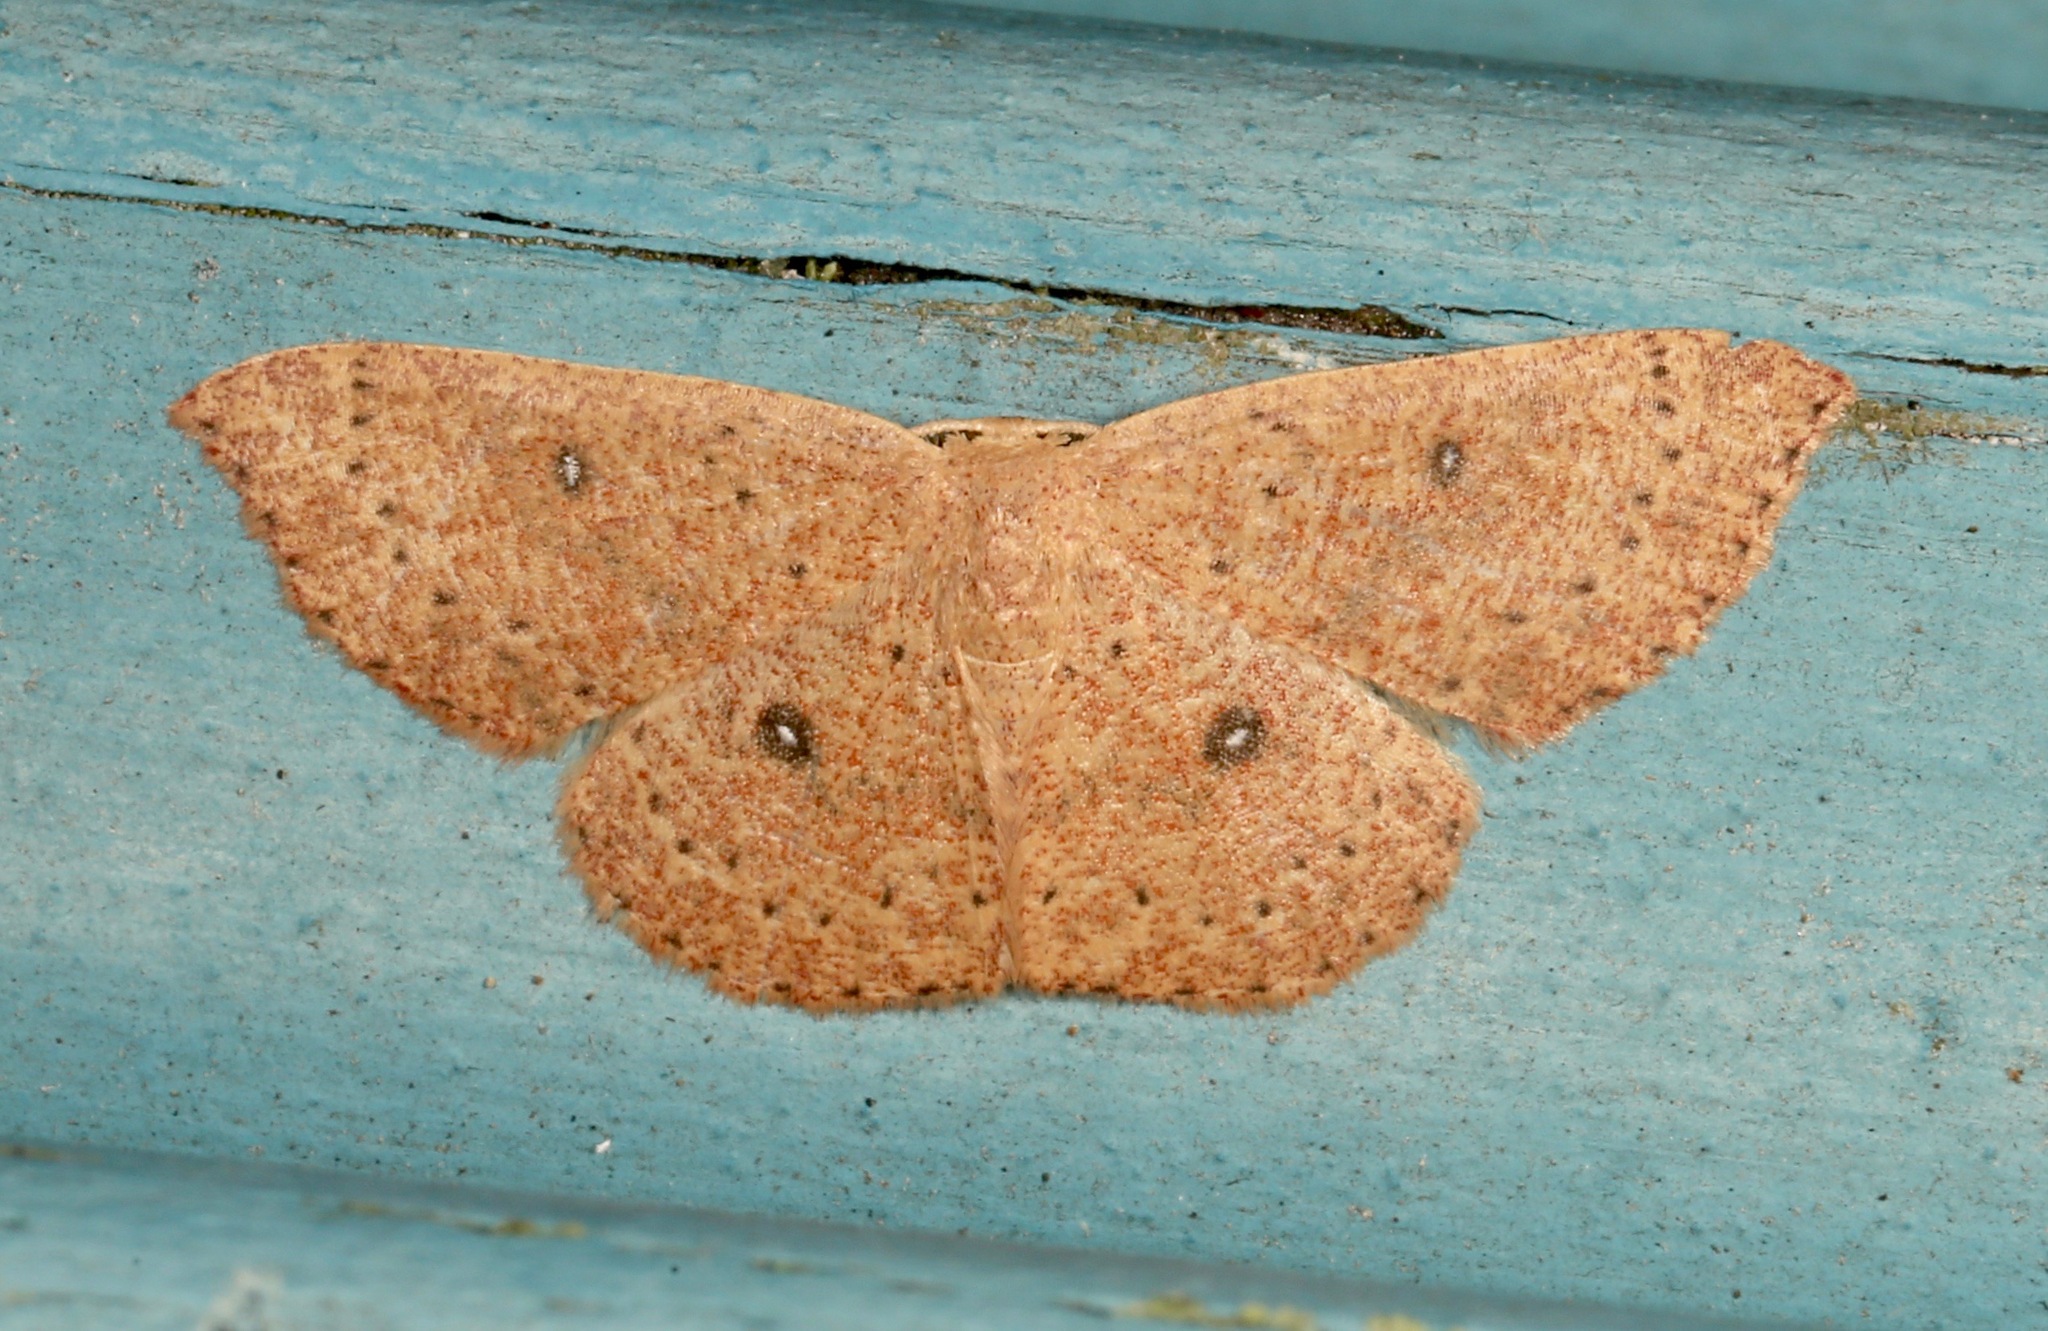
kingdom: Animalia
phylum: Arthropoda
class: Insecta
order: Lepidoptera
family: Geometridae
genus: Cyclophora
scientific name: Cyclophora packardi
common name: Packard's wave
